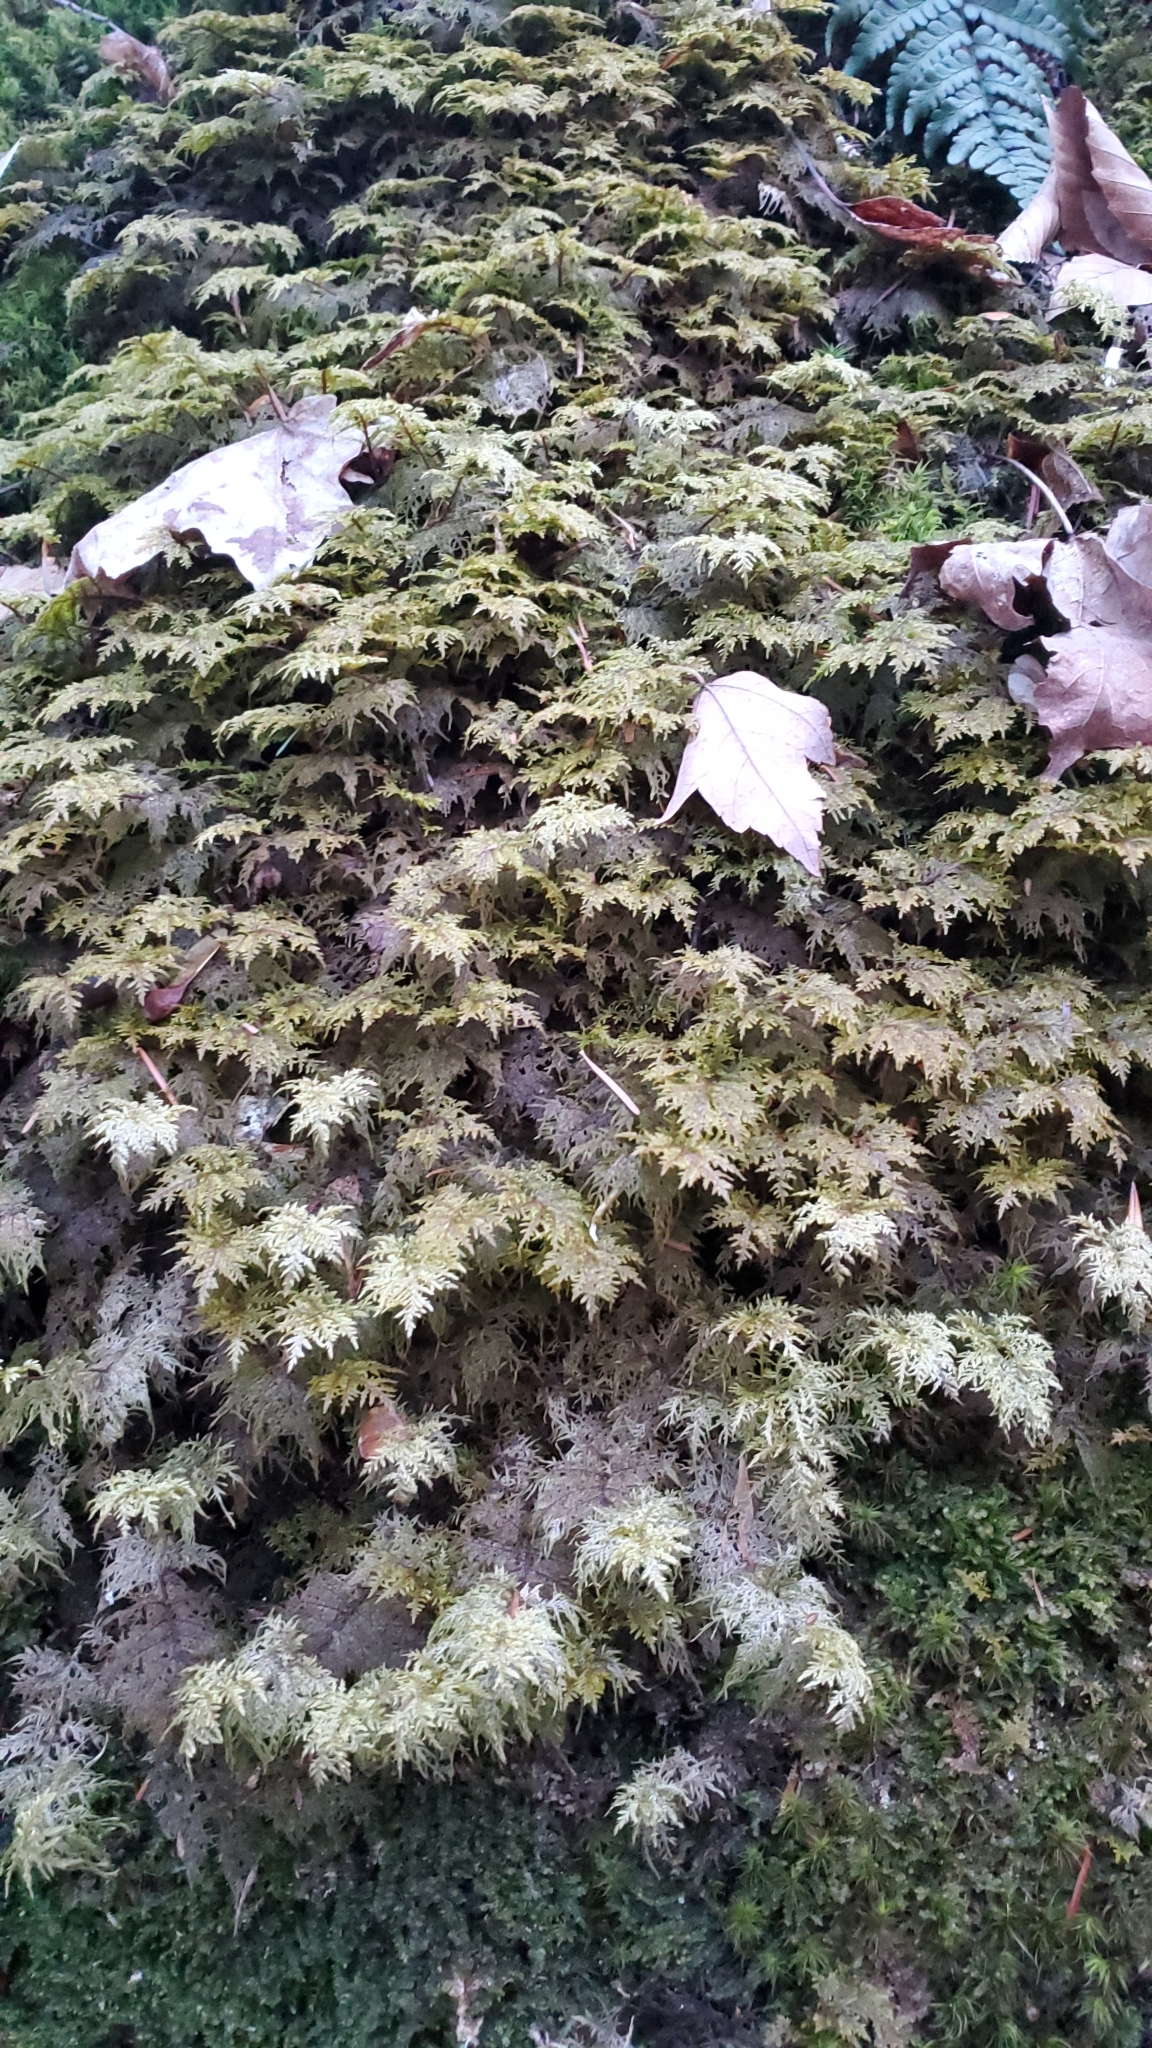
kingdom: Plantae
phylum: Bryophyta
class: Bryopsida
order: Hypnales
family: Hylocomiaceae
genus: Hylocomium
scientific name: Hylocomium splendens
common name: Stairstep moss
